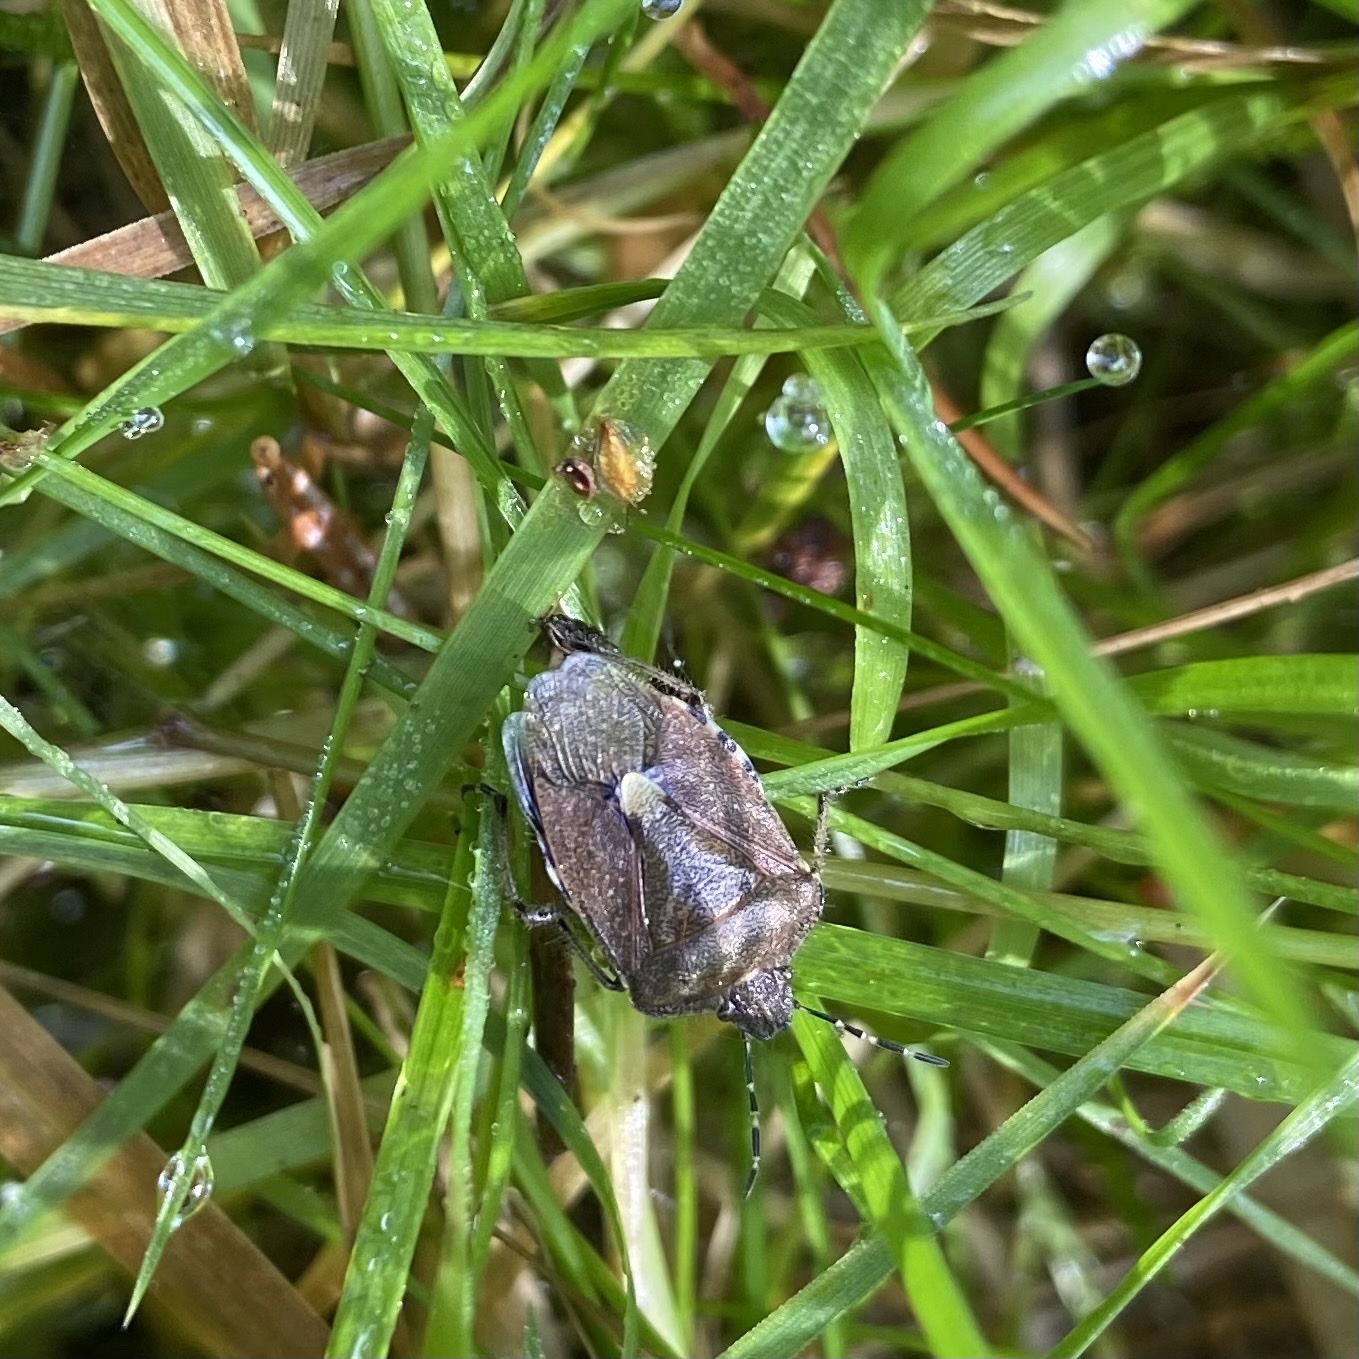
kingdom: Animalia
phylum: Arthropoda
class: Insecta
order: Hemiptera
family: Pentatomidae
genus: Dolycoris
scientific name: Dolycoris baccarum
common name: Sloe bug
